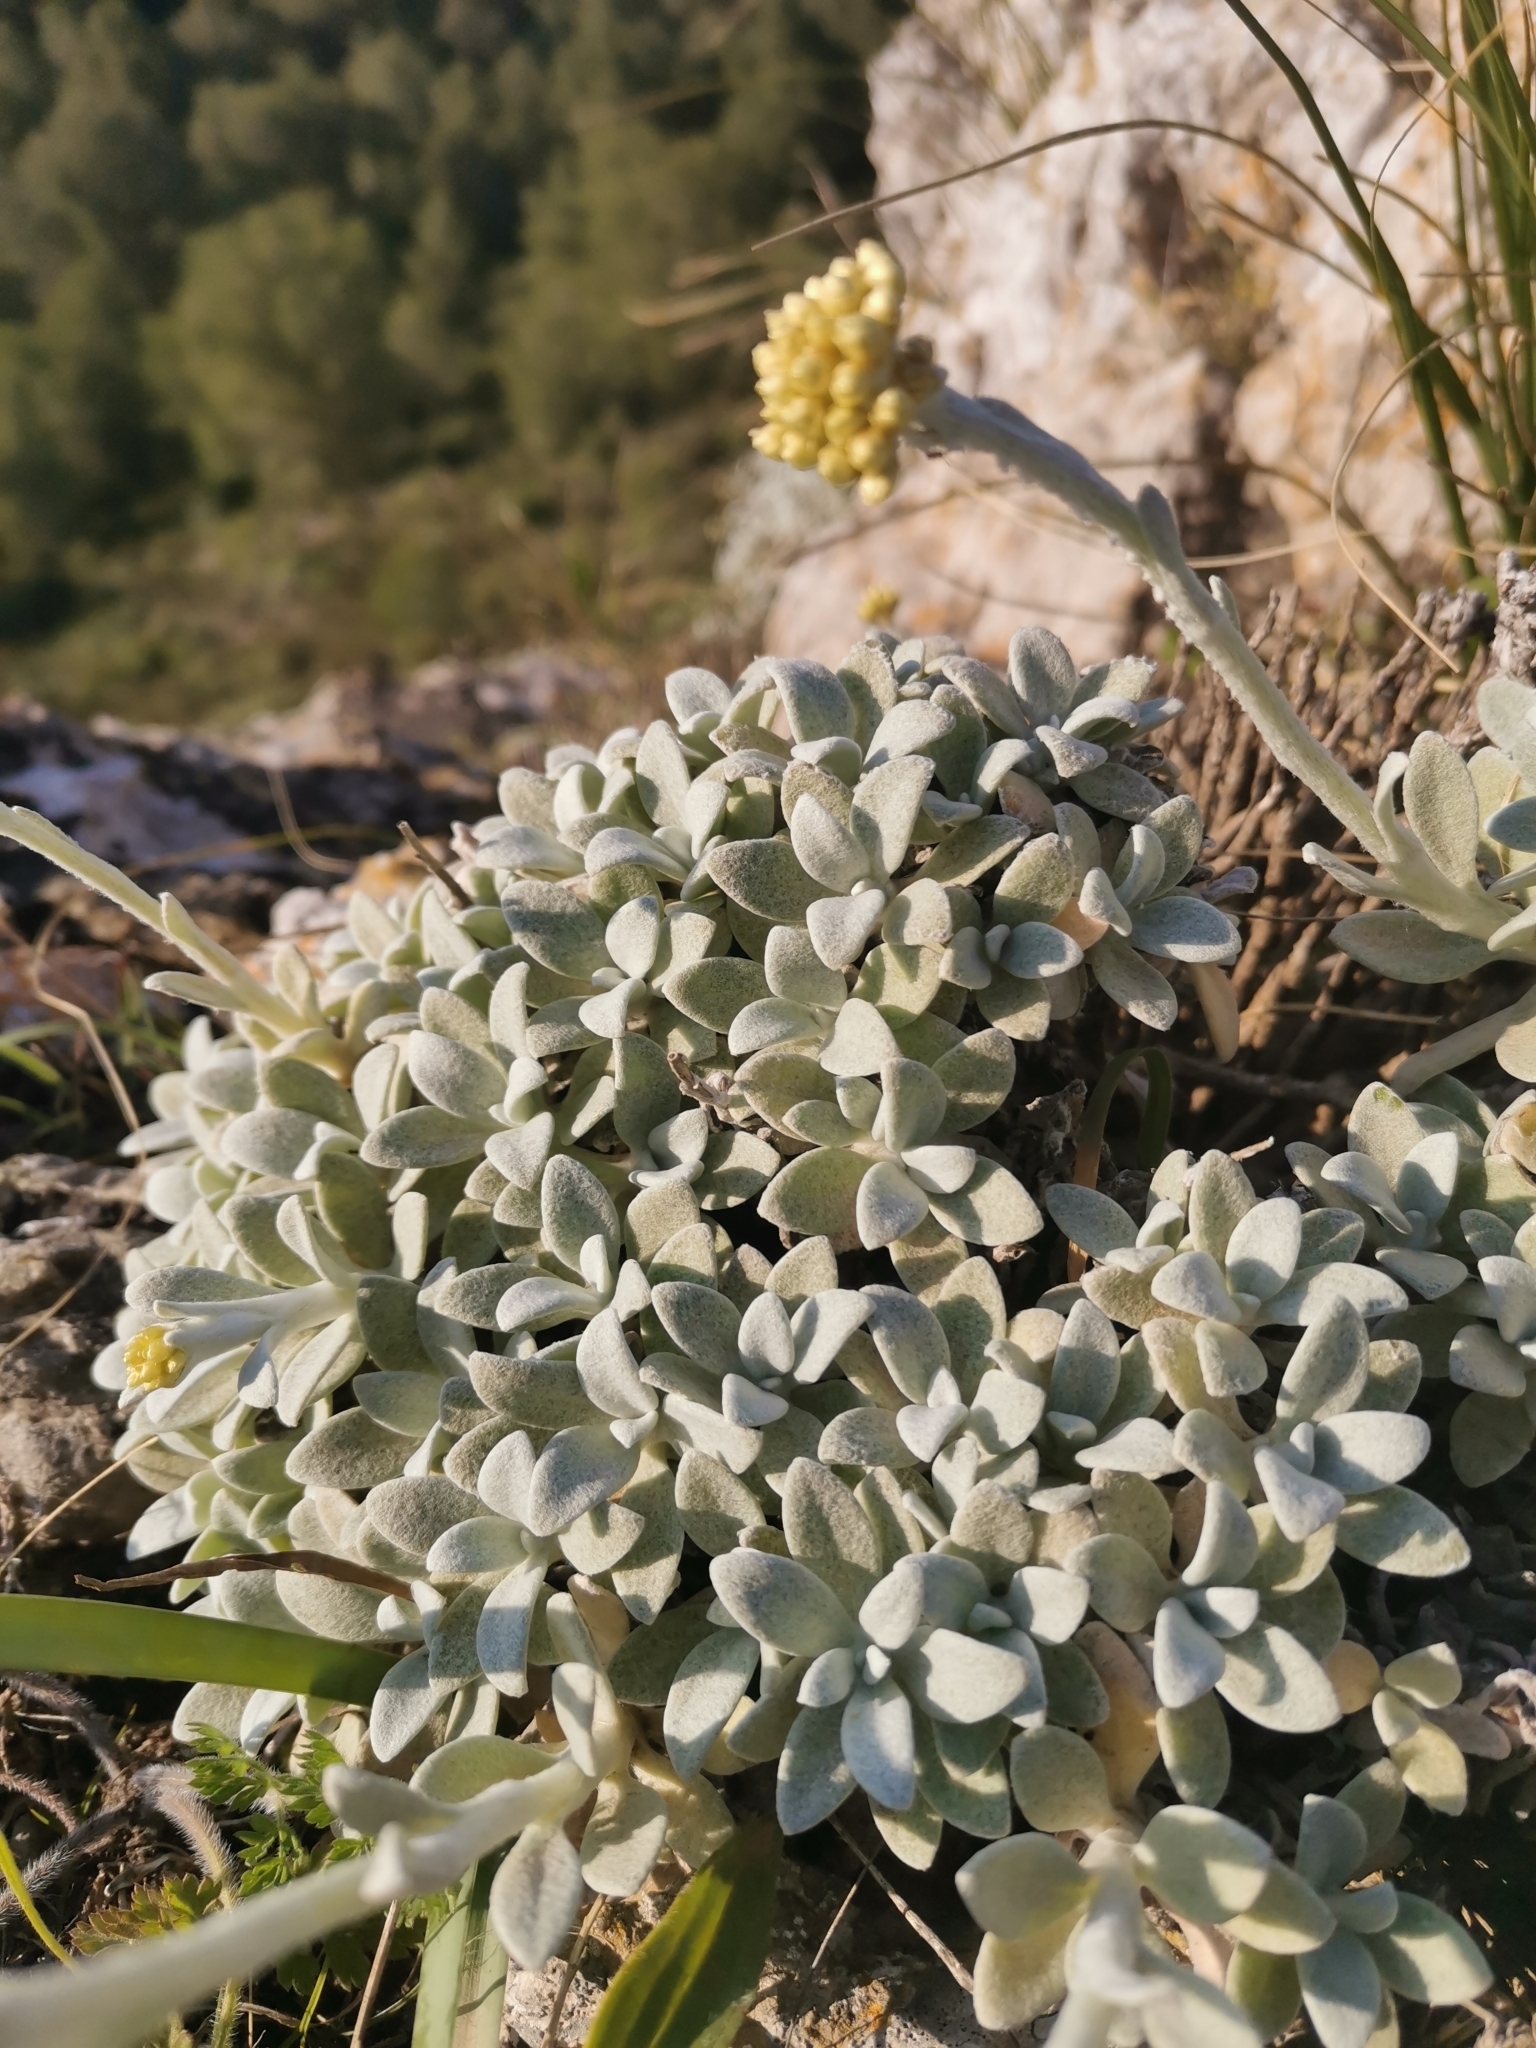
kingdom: Plantae
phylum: Tracheophyta
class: Magnoliopsida
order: Asterales
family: Asteraceae
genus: Helichrysum
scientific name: Helichrysum crassifolium
